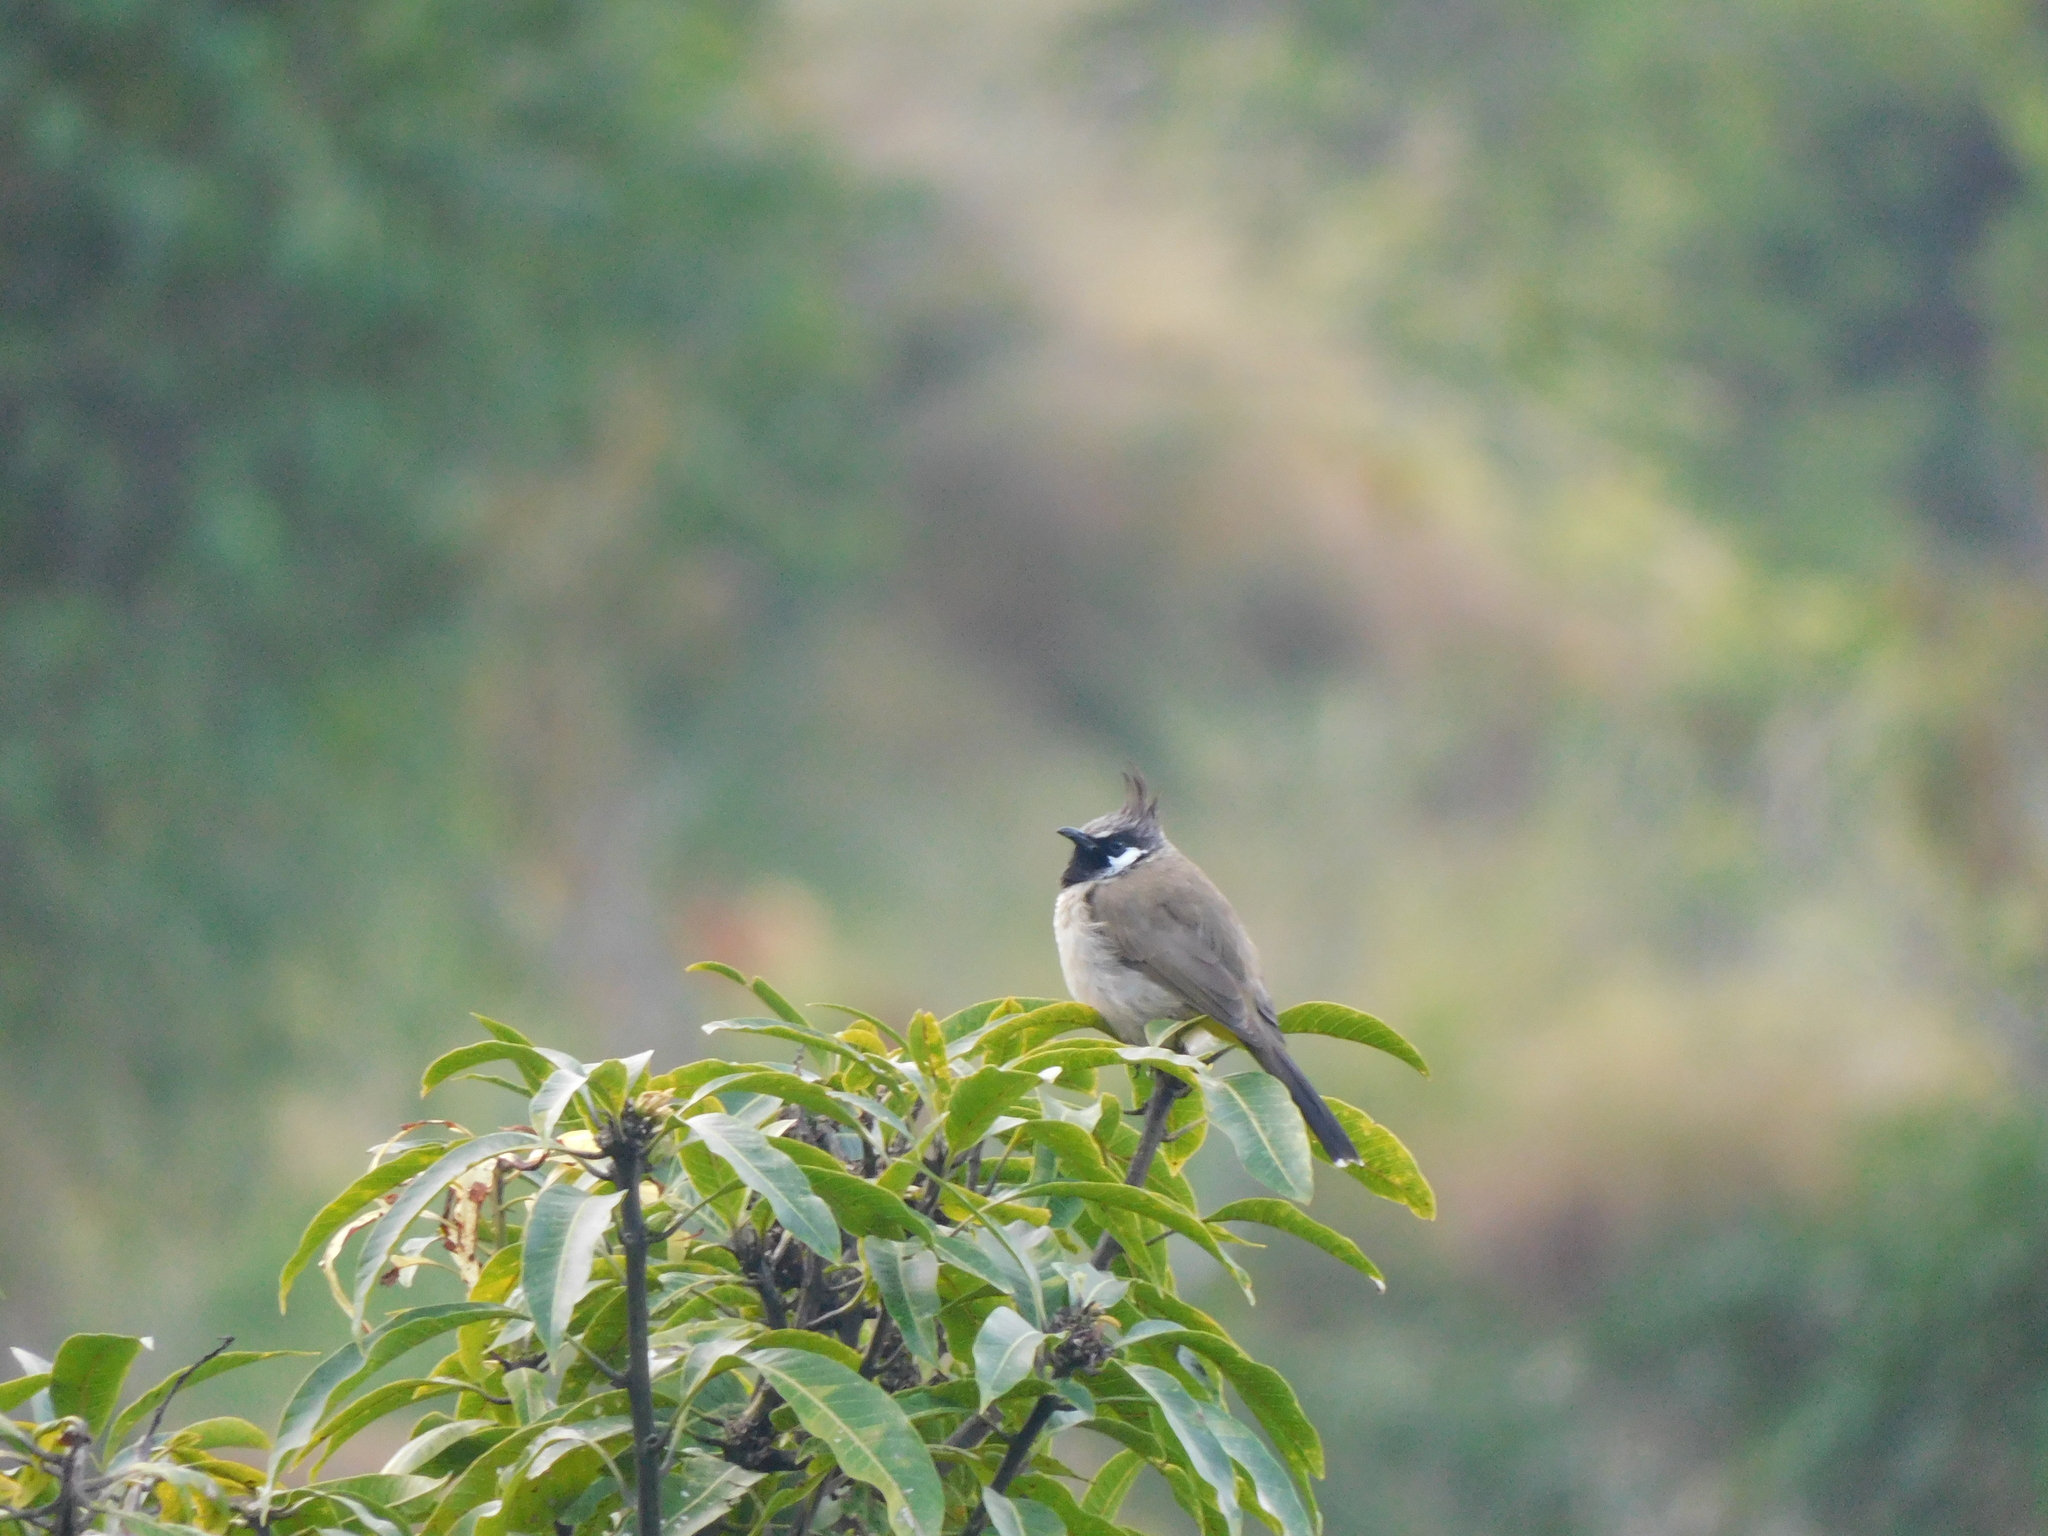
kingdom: Animalia
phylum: Chordata
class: Aves
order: Passeriformes
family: Pycnonotidae
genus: Pycnonotus
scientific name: Pycnonotus leucogenys
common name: Himalayan bulbul
